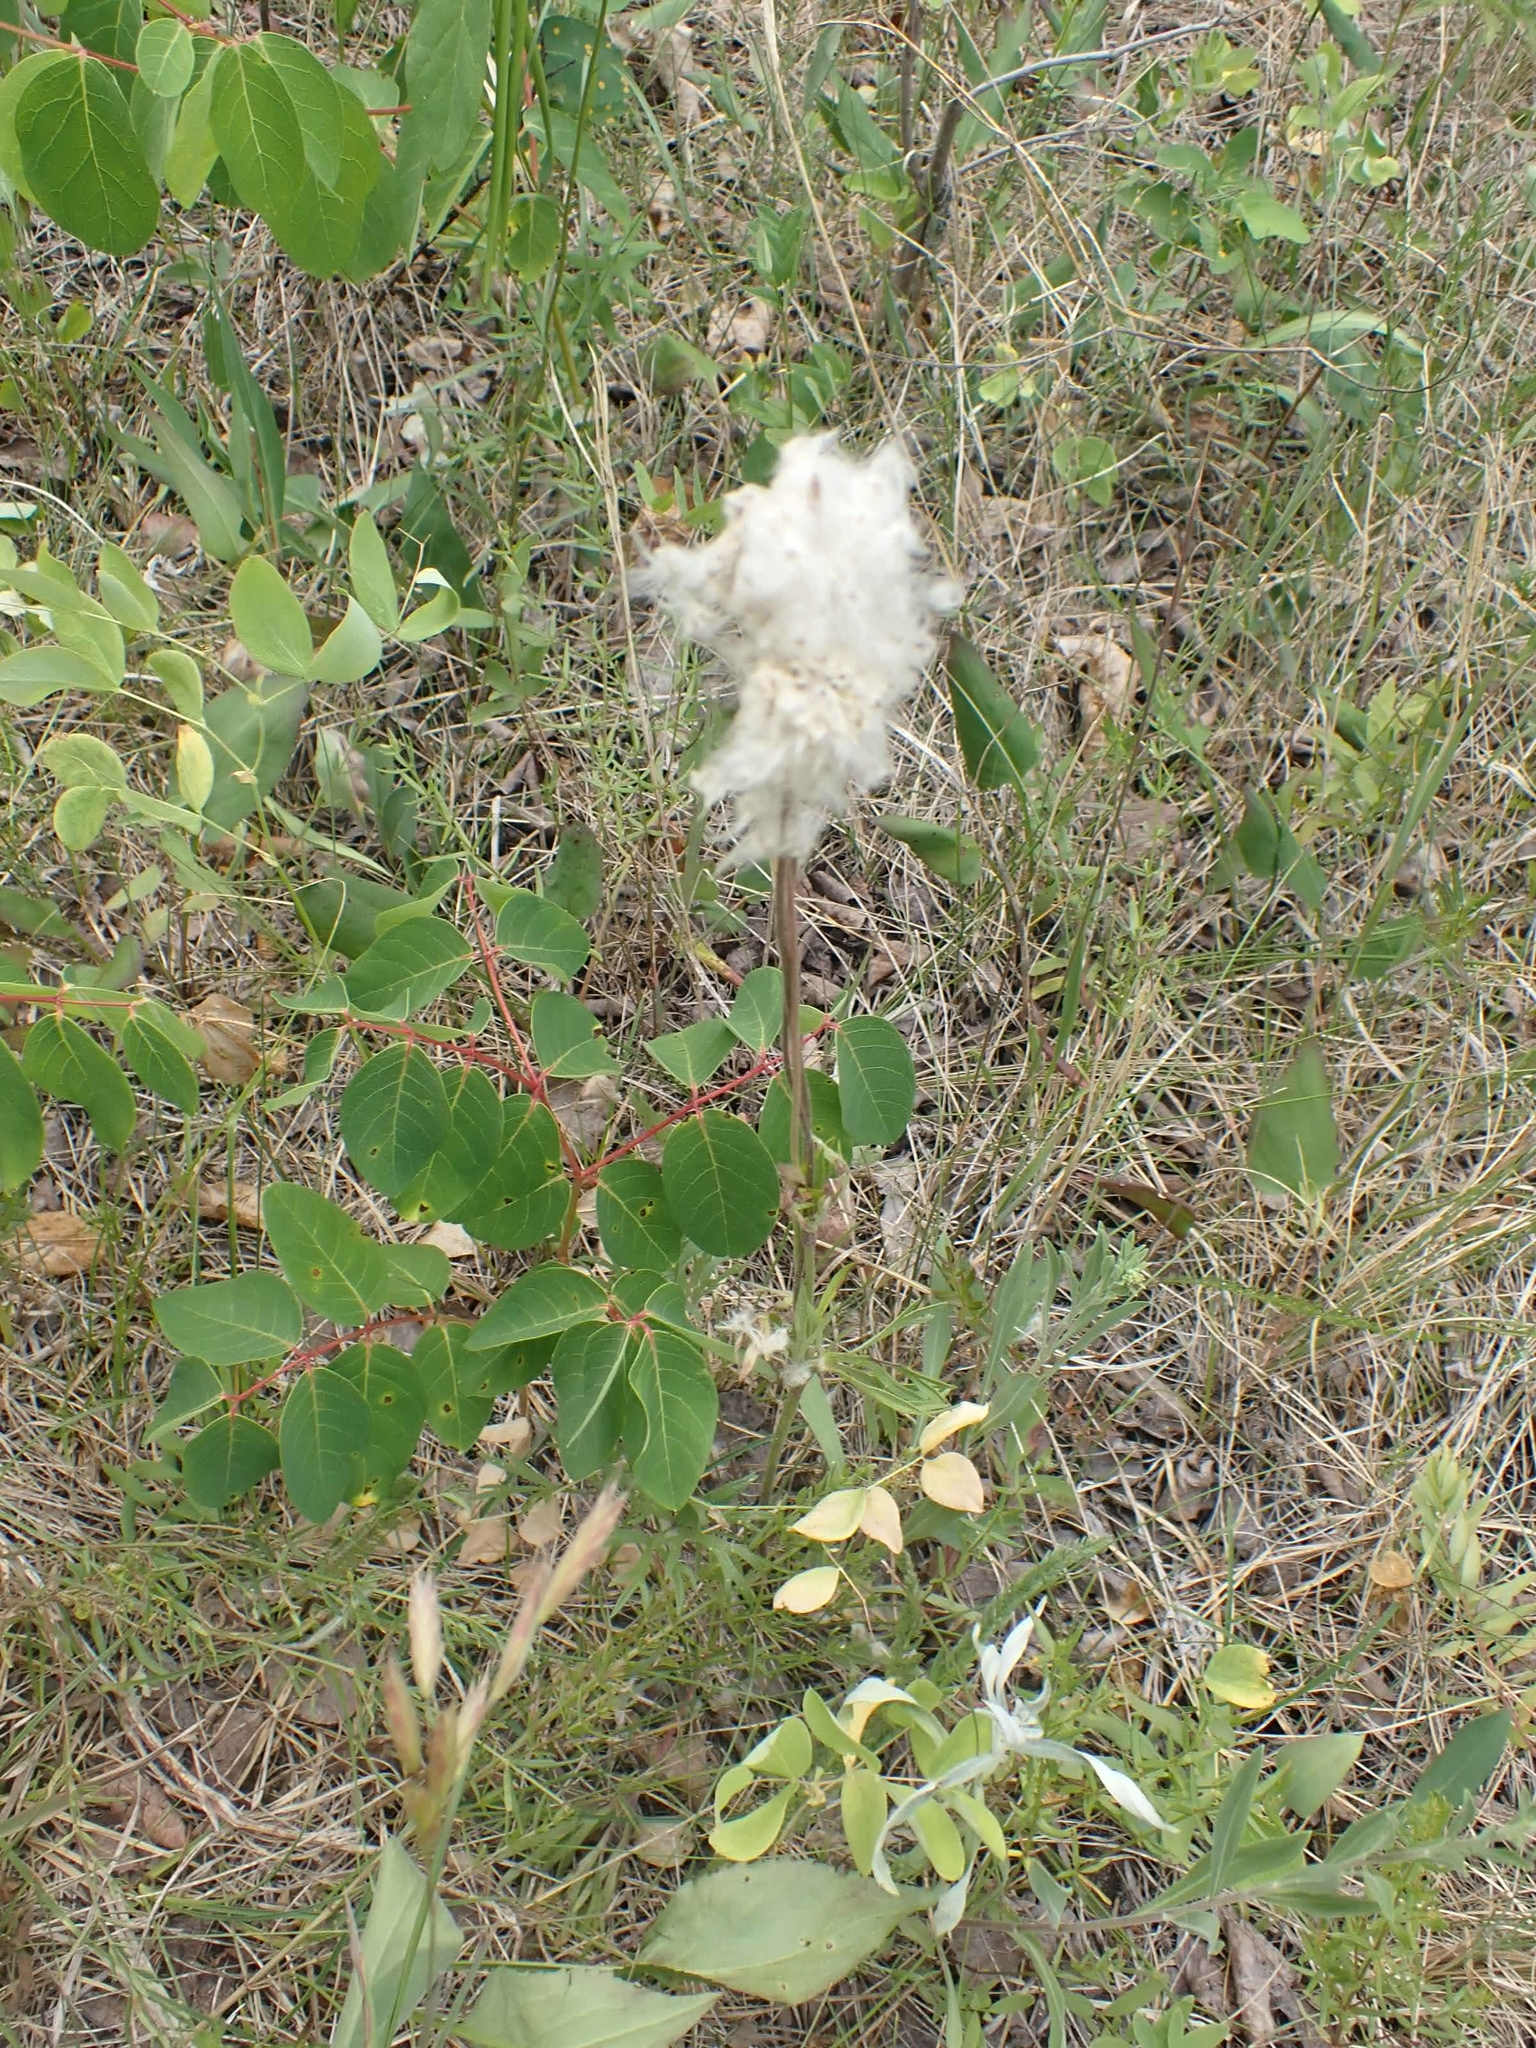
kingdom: Plantae
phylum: Tracheophyta
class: Magnoliopsida
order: Ranunculales
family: Ranunculaceae
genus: Anemone
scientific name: Anemone multifida
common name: Bird's-foot anemone
